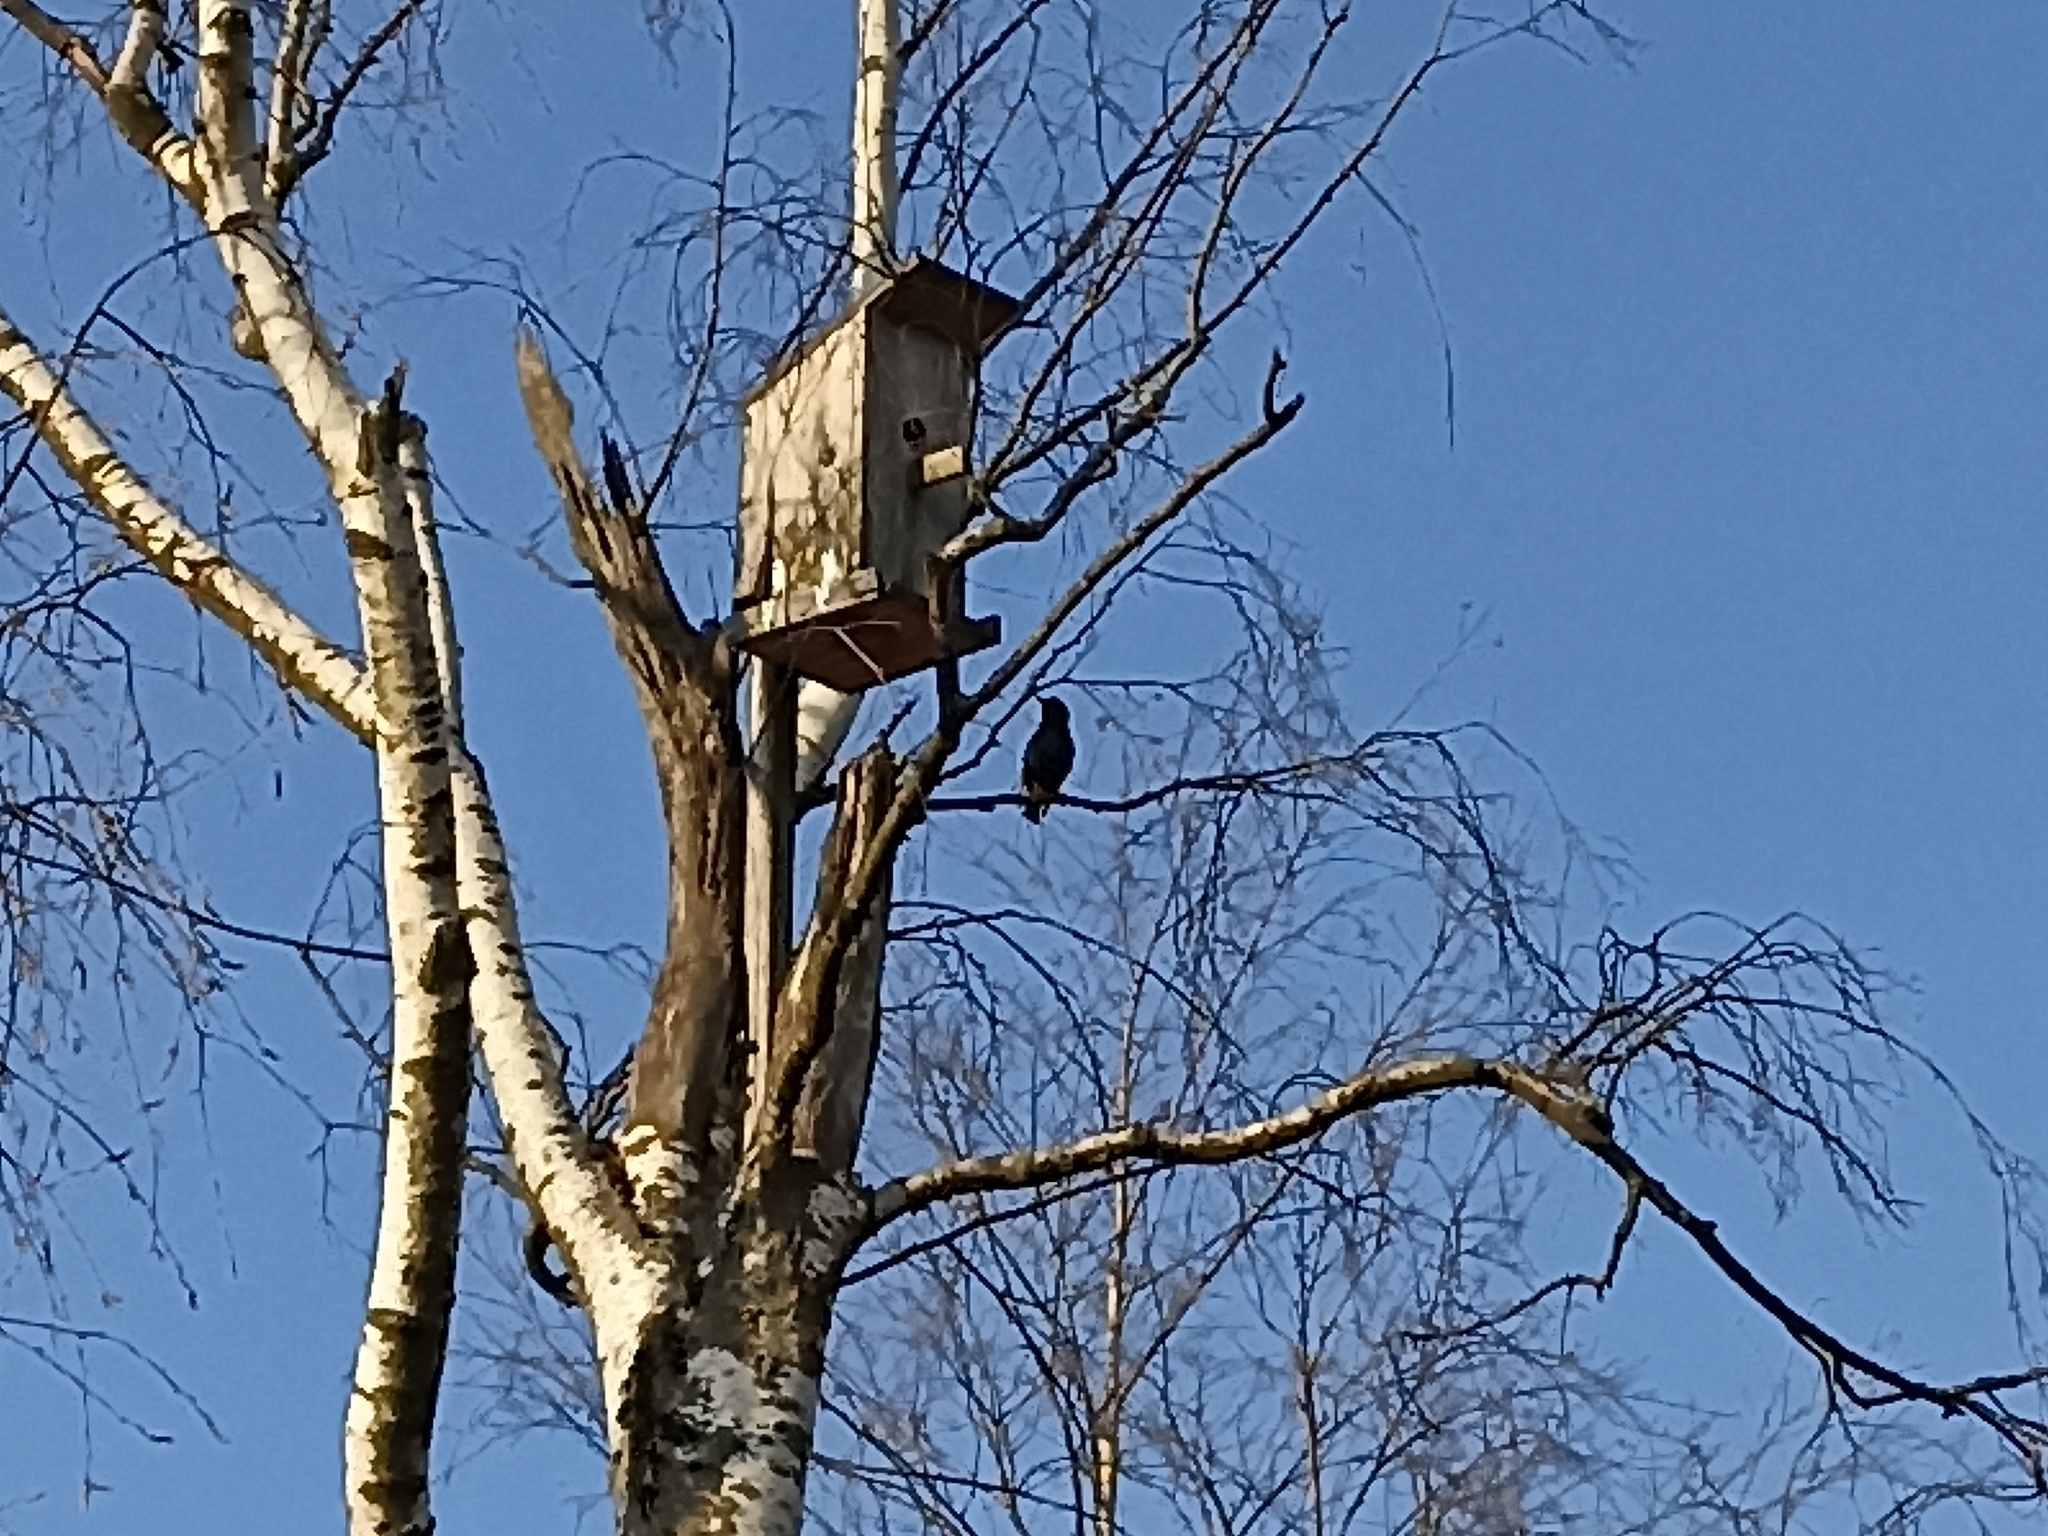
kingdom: Animalia
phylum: Chordata
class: Aves
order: Passeriformes
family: Sturnidae
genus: Sturnus
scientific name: Sturnus vulgaris
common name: Common starling
